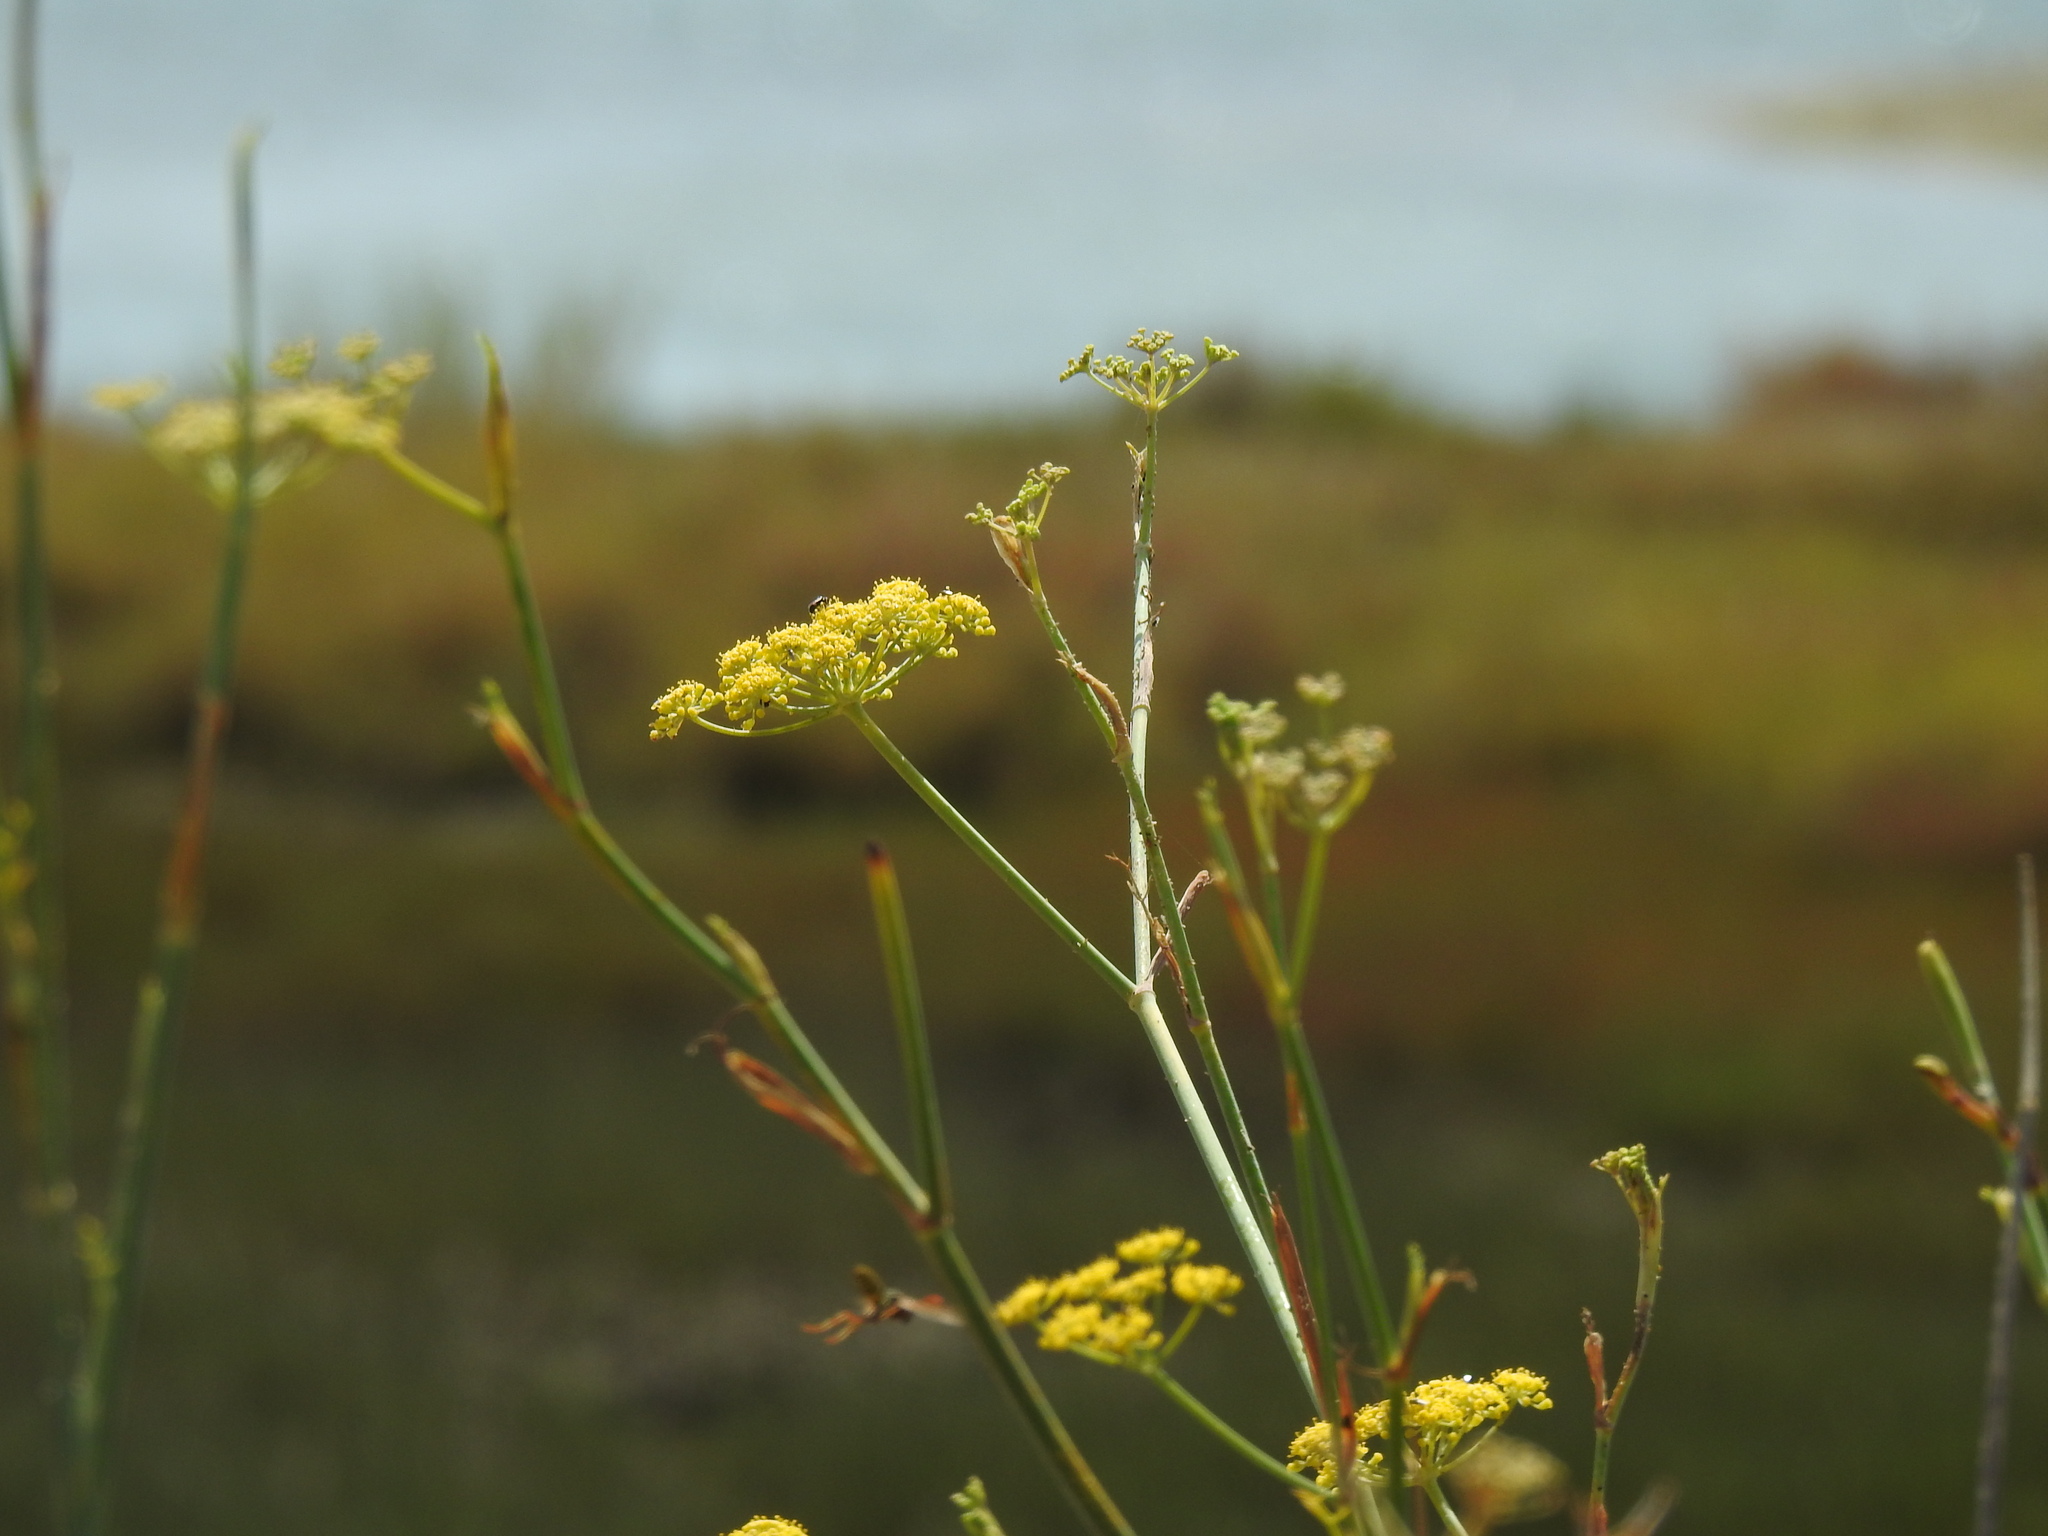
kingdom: Plantae
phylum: Tracheophyta
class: Magnoliopsida
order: Apiales
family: Apiaceae
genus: Foeniculum
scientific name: Foeniculum vulgare
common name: Fennel
